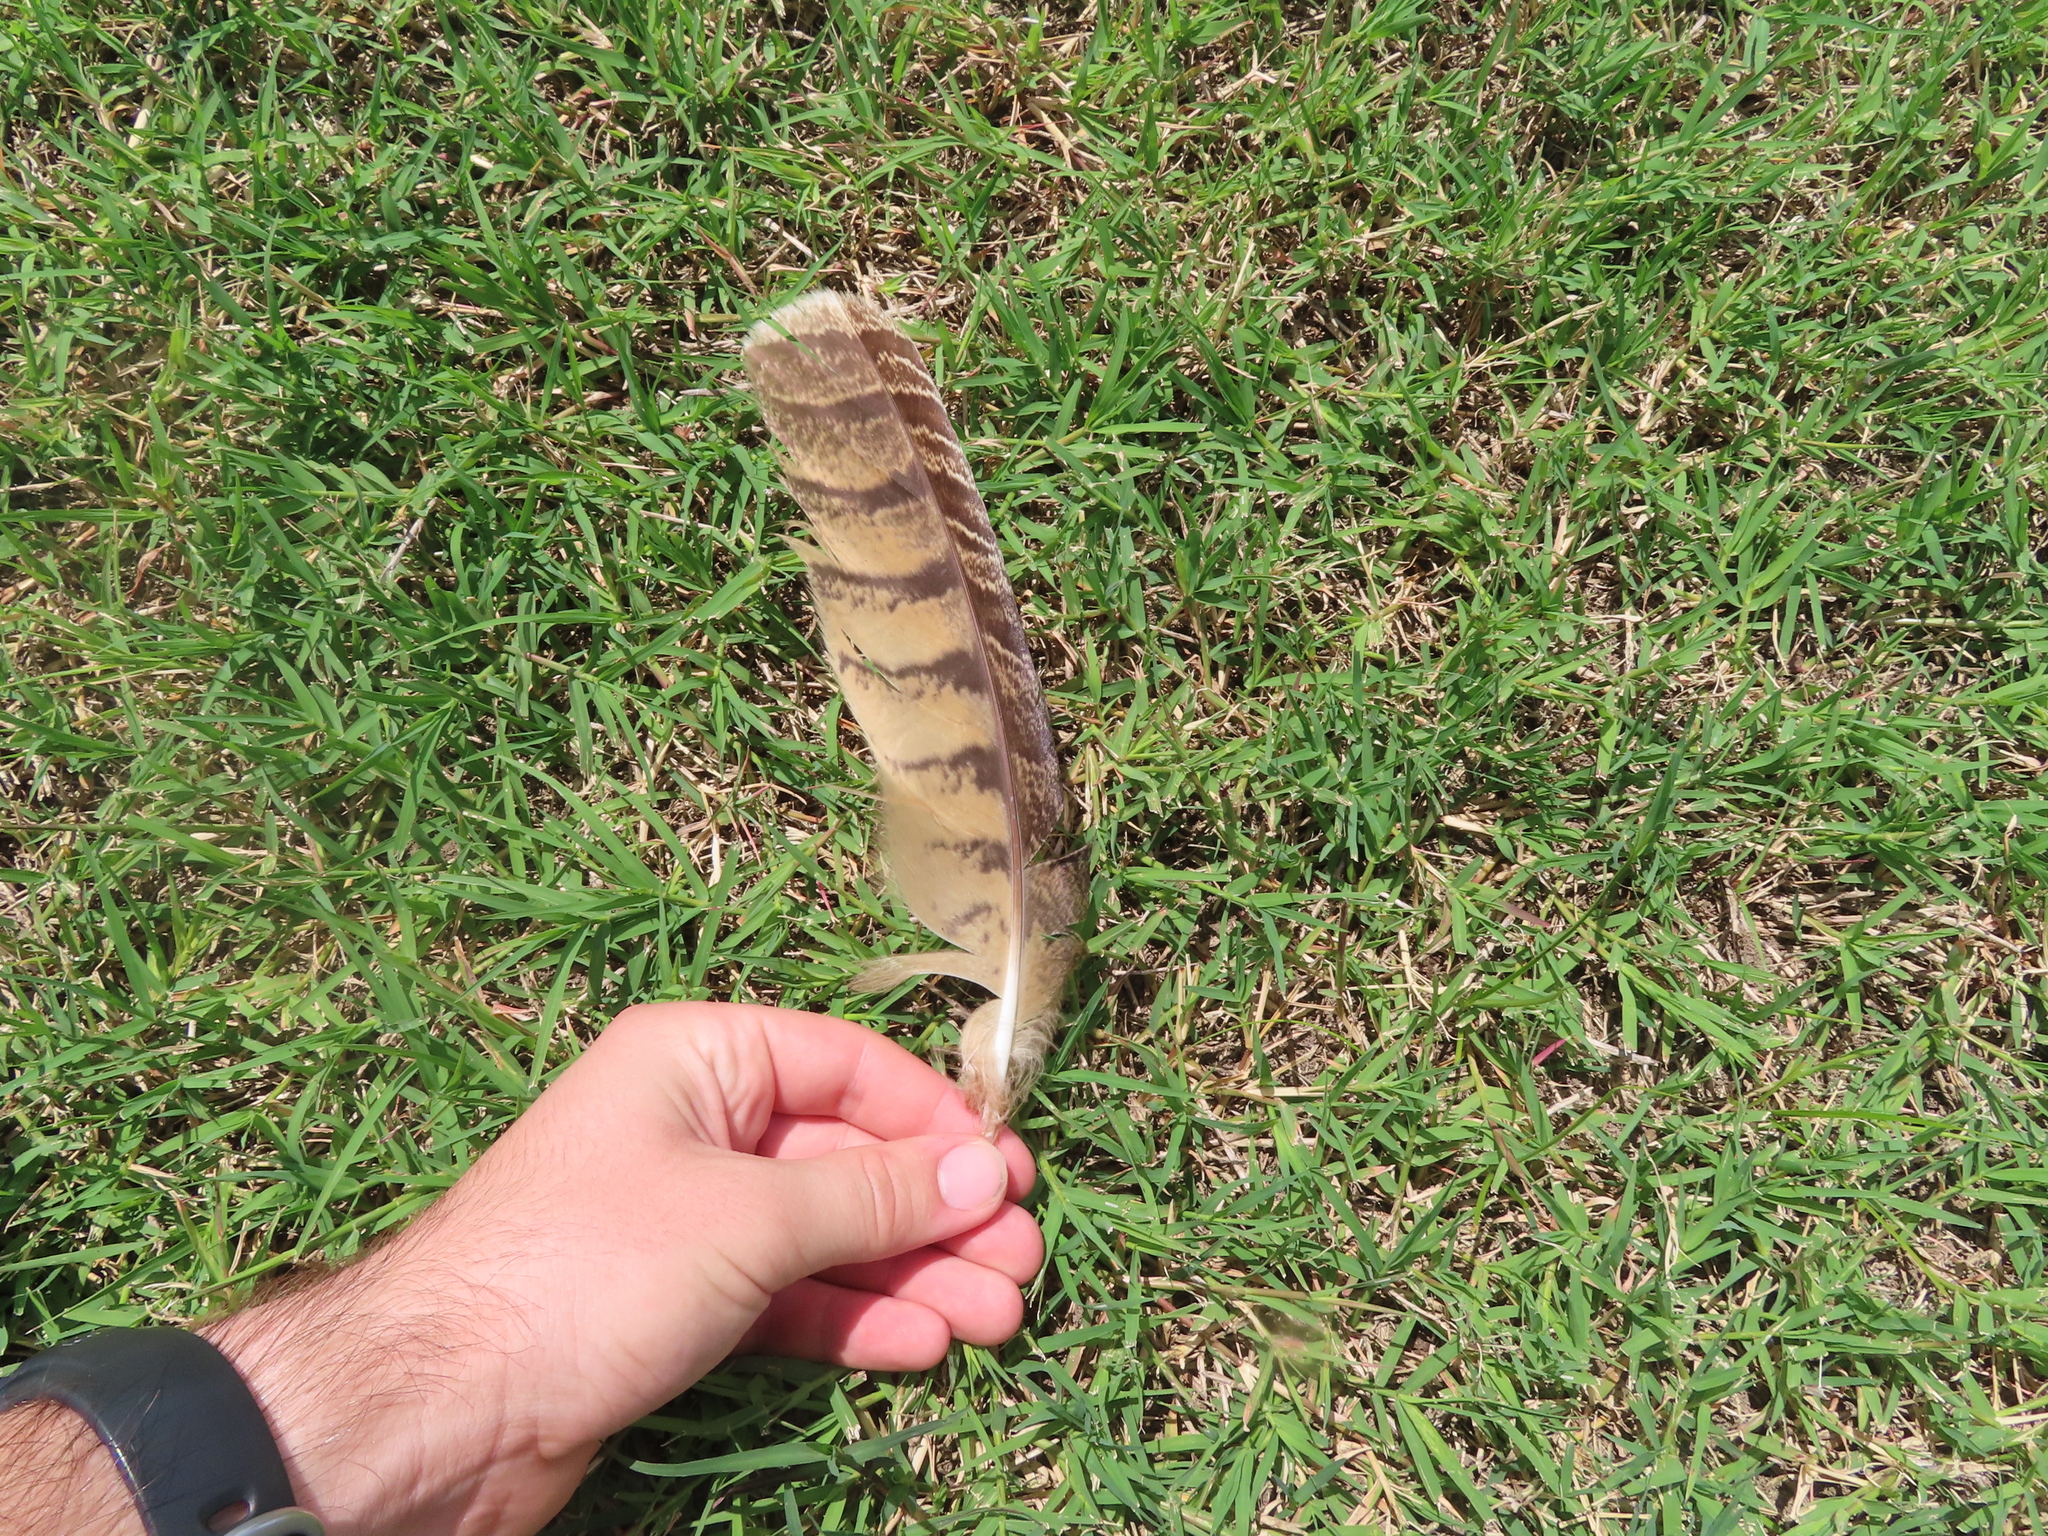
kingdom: Animalia
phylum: Chordata
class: Aves
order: Strigiformes
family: Strigidae
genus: Bubo
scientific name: Bubo virginianus
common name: Great horned owl
